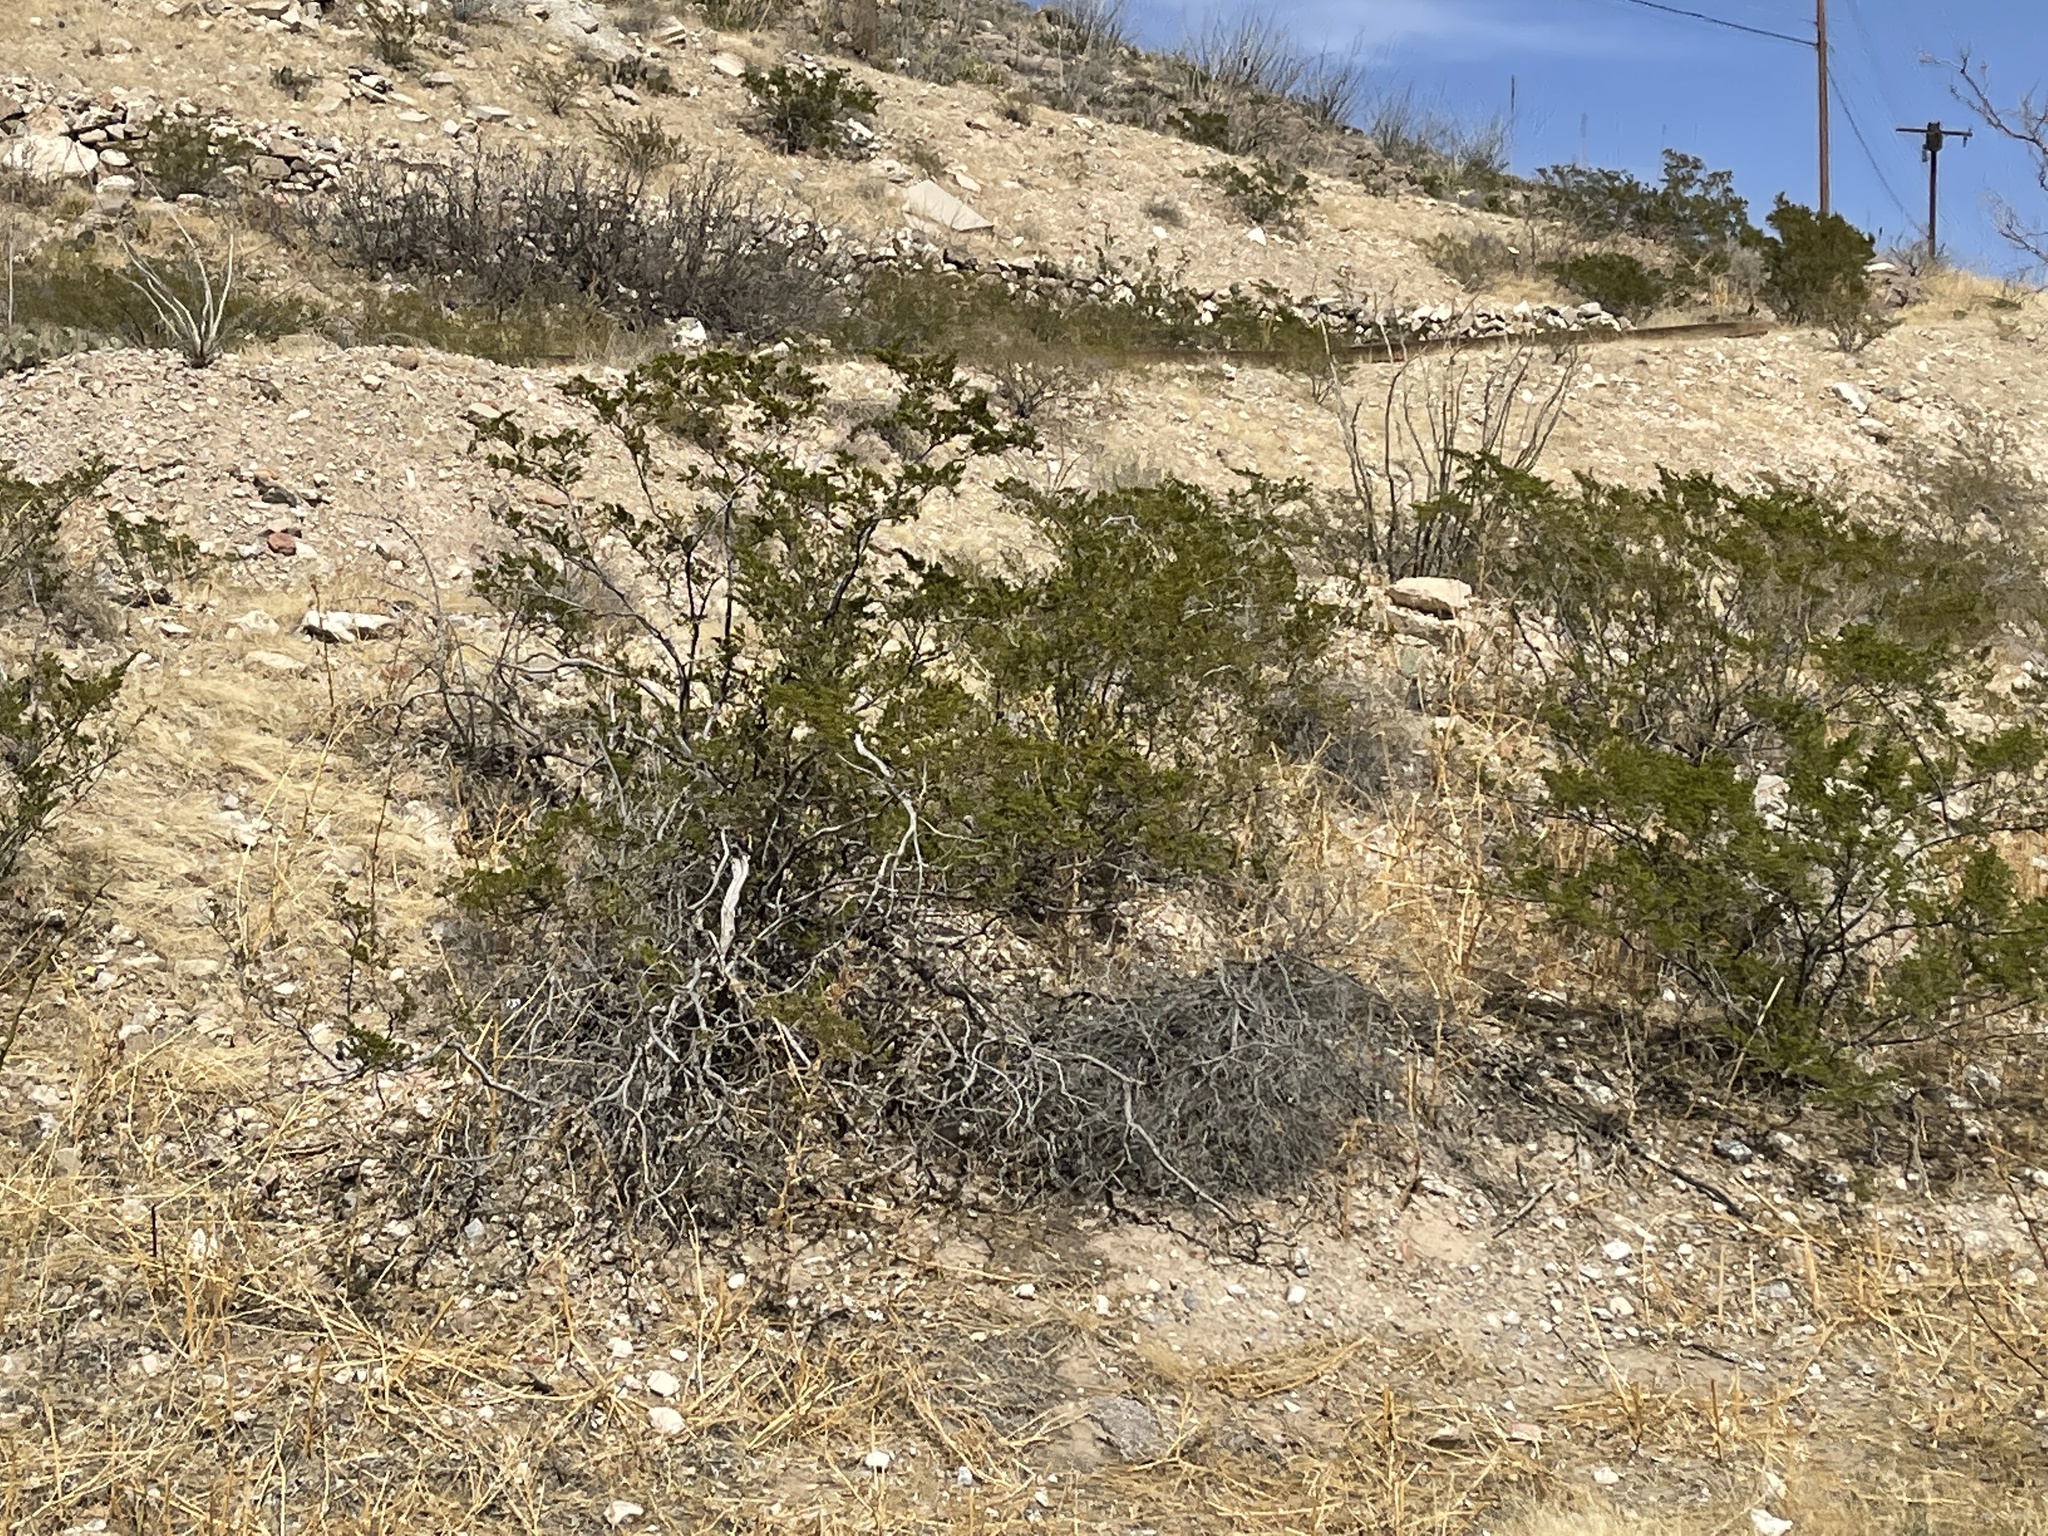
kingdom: Plantae
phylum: Tracheophyta
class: Magnoliopsida
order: Zygophyllales
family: Zygophyllaceae
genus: Larrea
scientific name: Larrea tridentata
